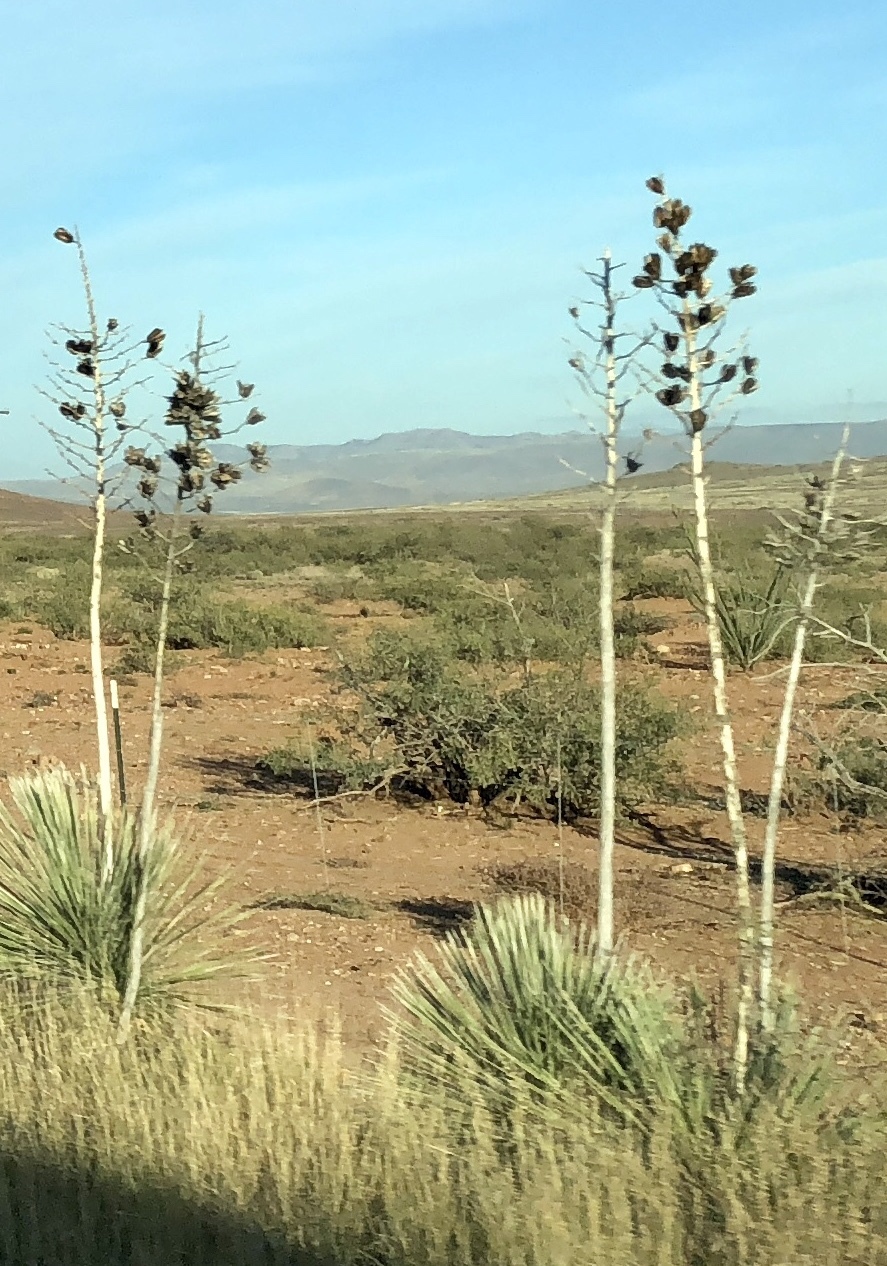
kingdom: Plantae
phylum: Tracheophyta
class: Liliopsida
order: Asparagales
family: Asparagaceae
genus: Yucca
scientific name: Yucca elata
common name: Palmella
